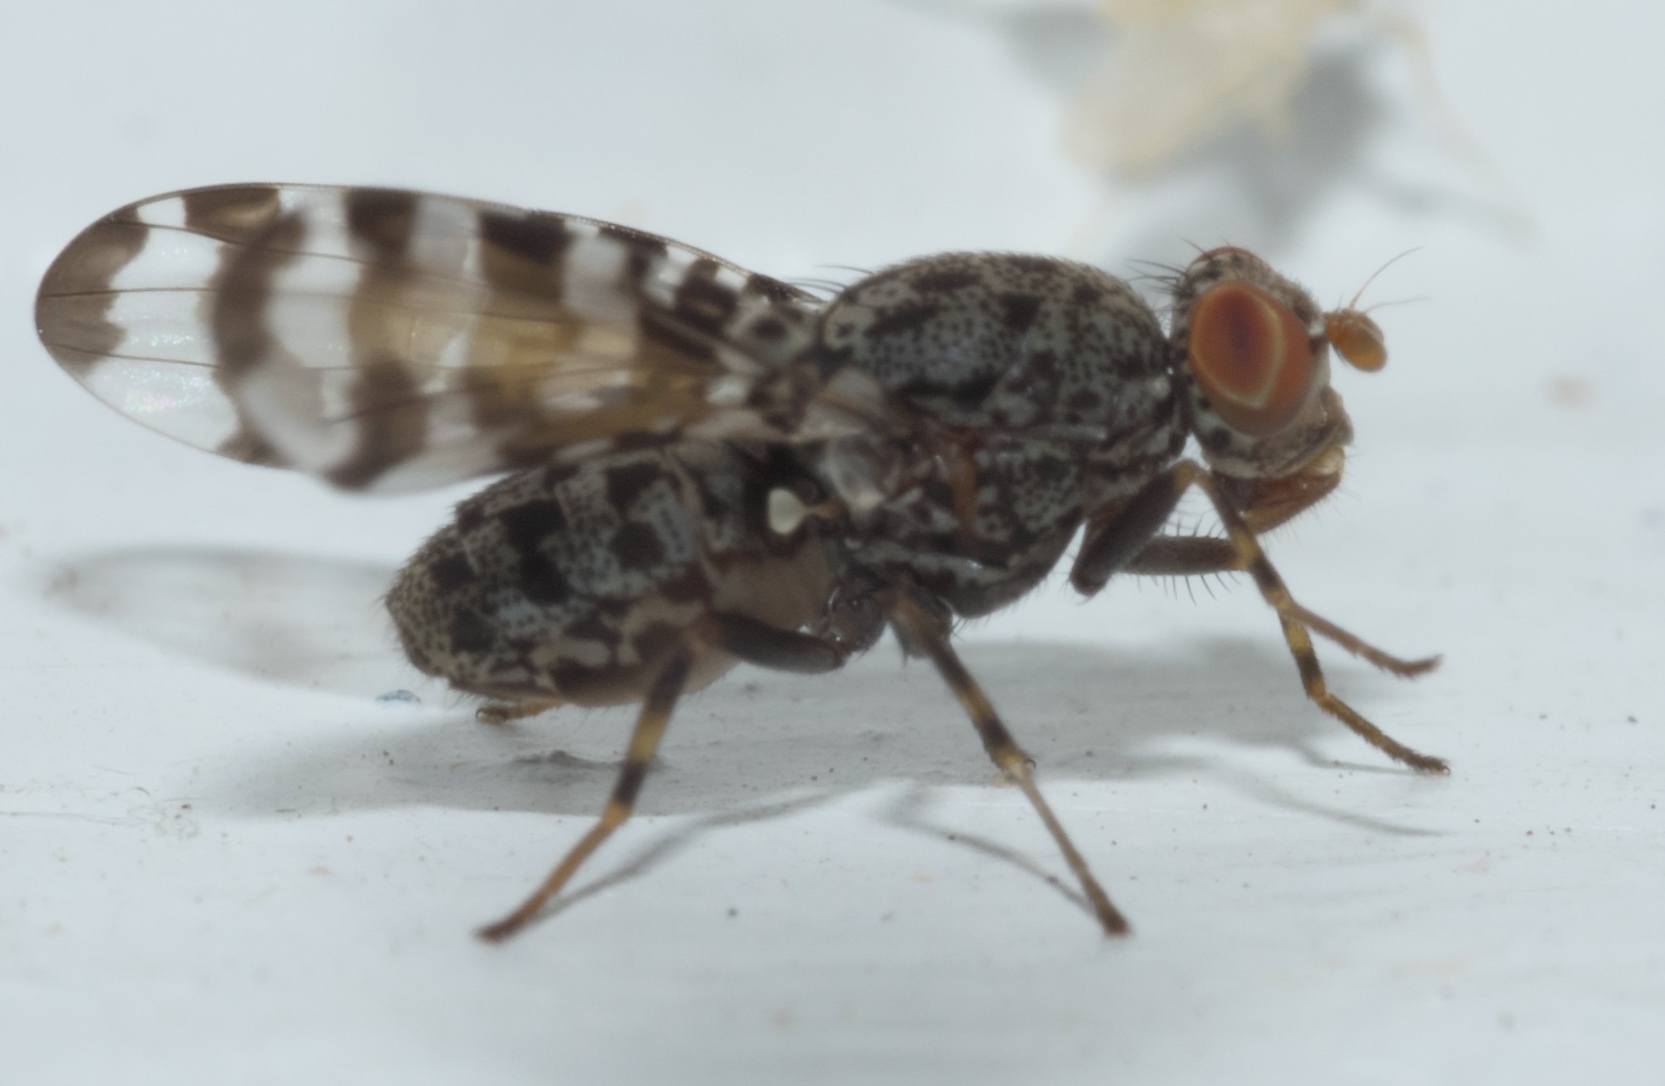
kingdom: Animalia
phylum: Arthropoda
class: Insecta
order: Diptera
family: Ulidiidae
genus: Pseudotephritis
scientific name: Pseudotephritis approximata
